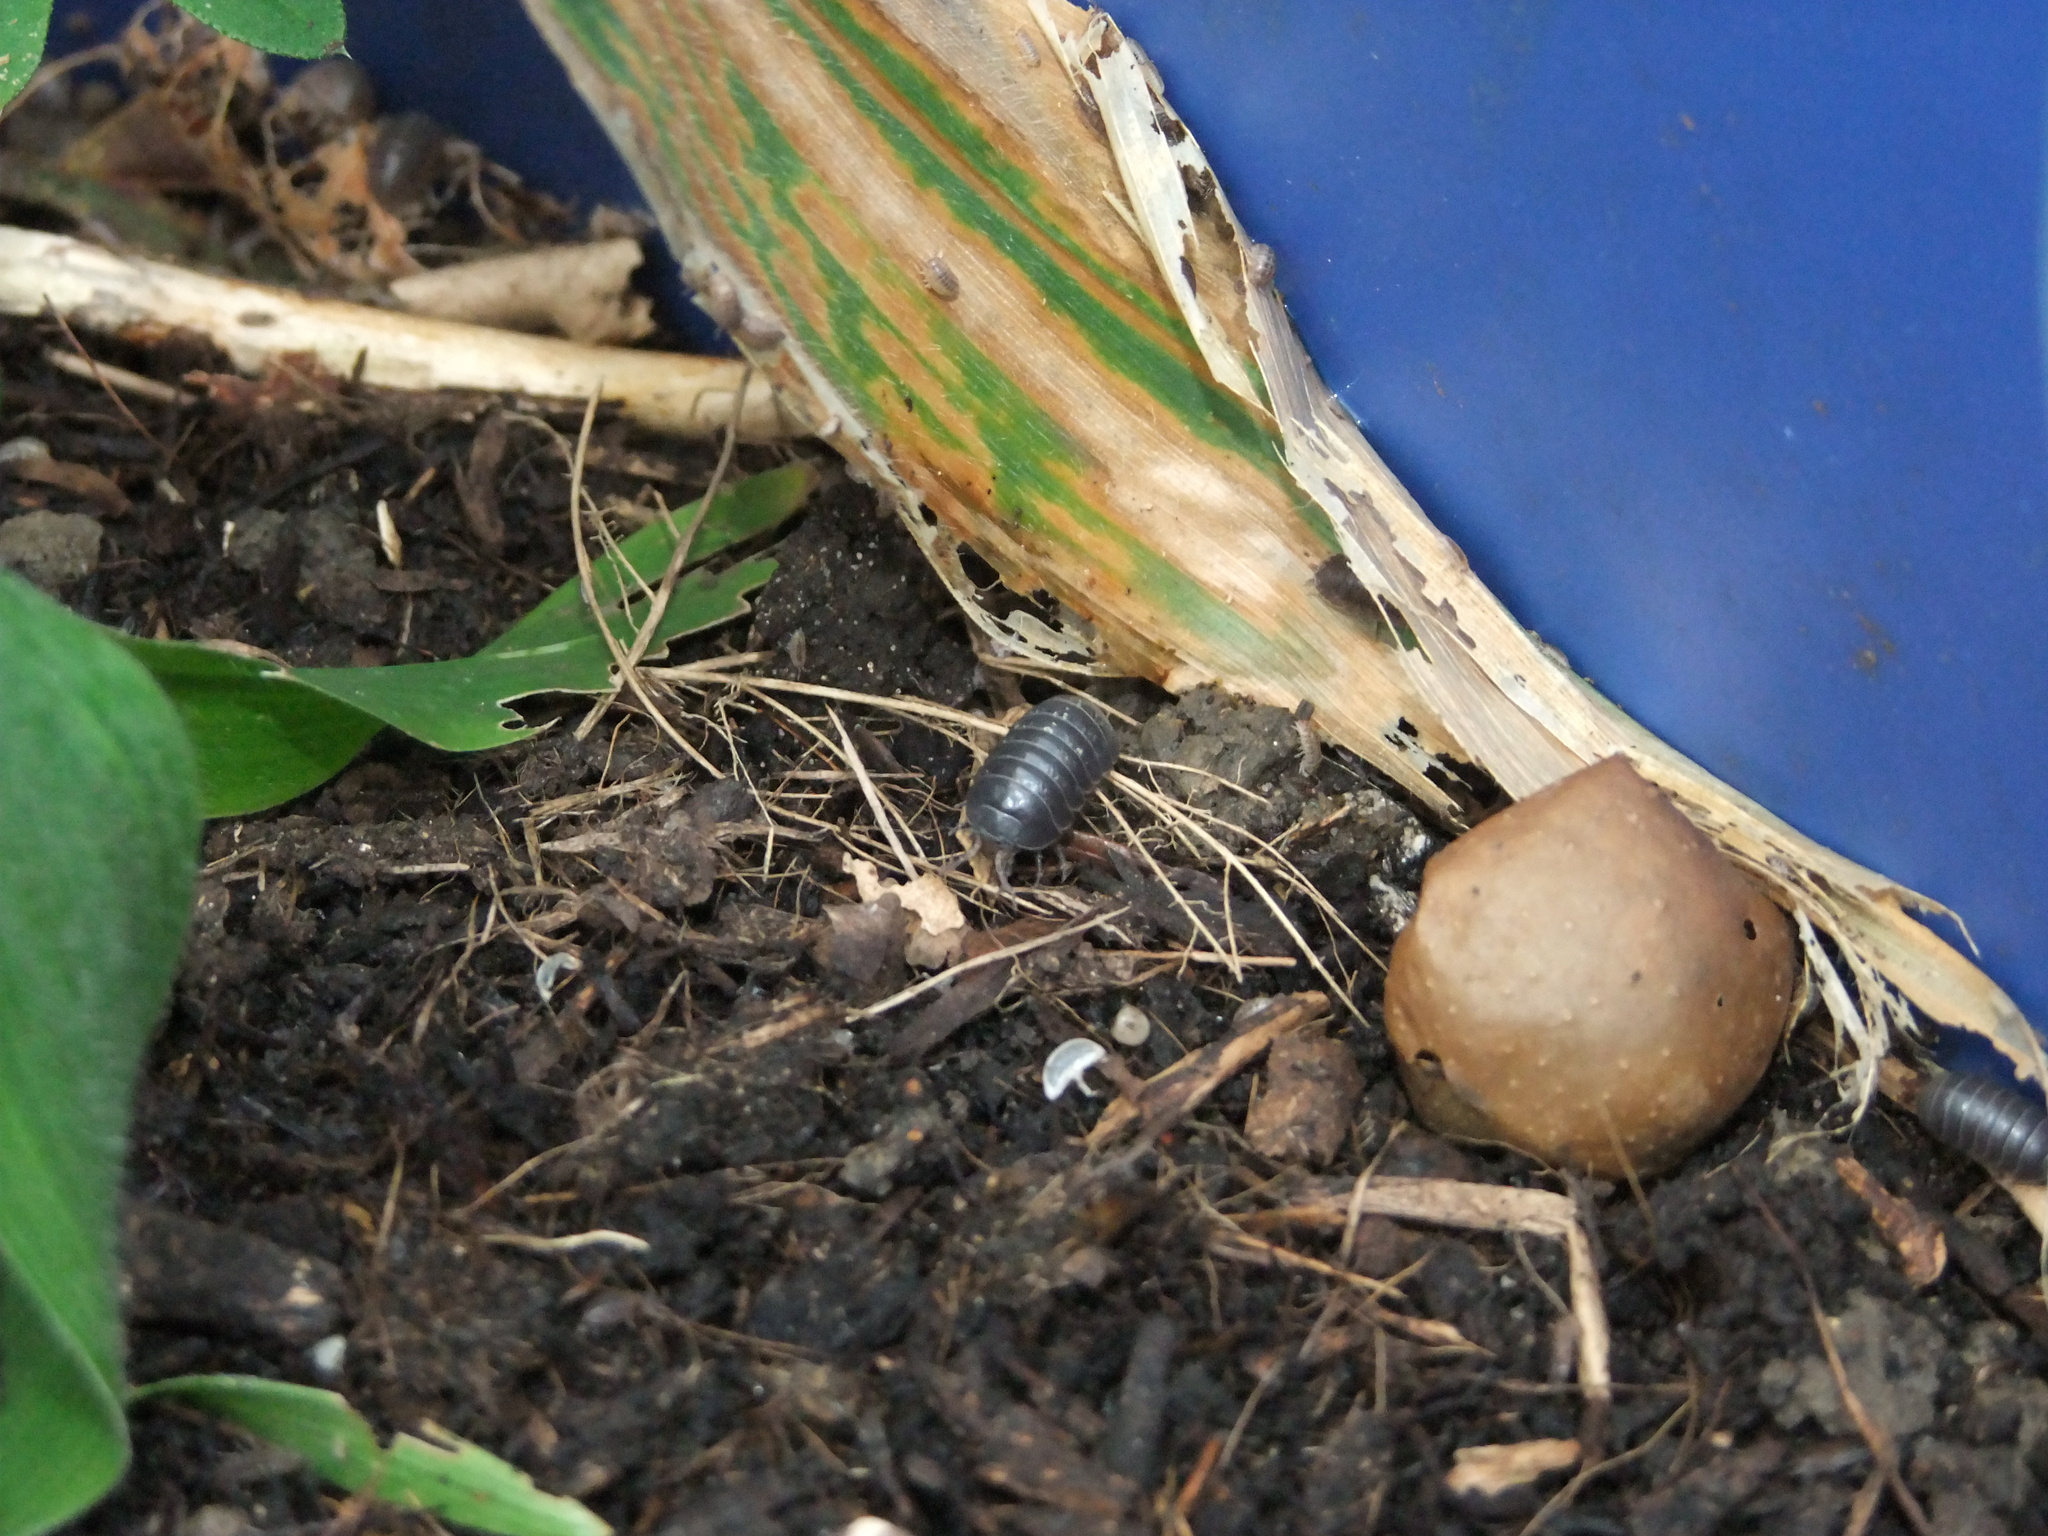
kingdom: Animalia
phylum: Arthropoda
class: Malacostraca
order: Isopoda
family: Armadillidiidae
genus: Armadillidium
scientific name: Armadillidium vulgare
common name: Common pill woodlouse
